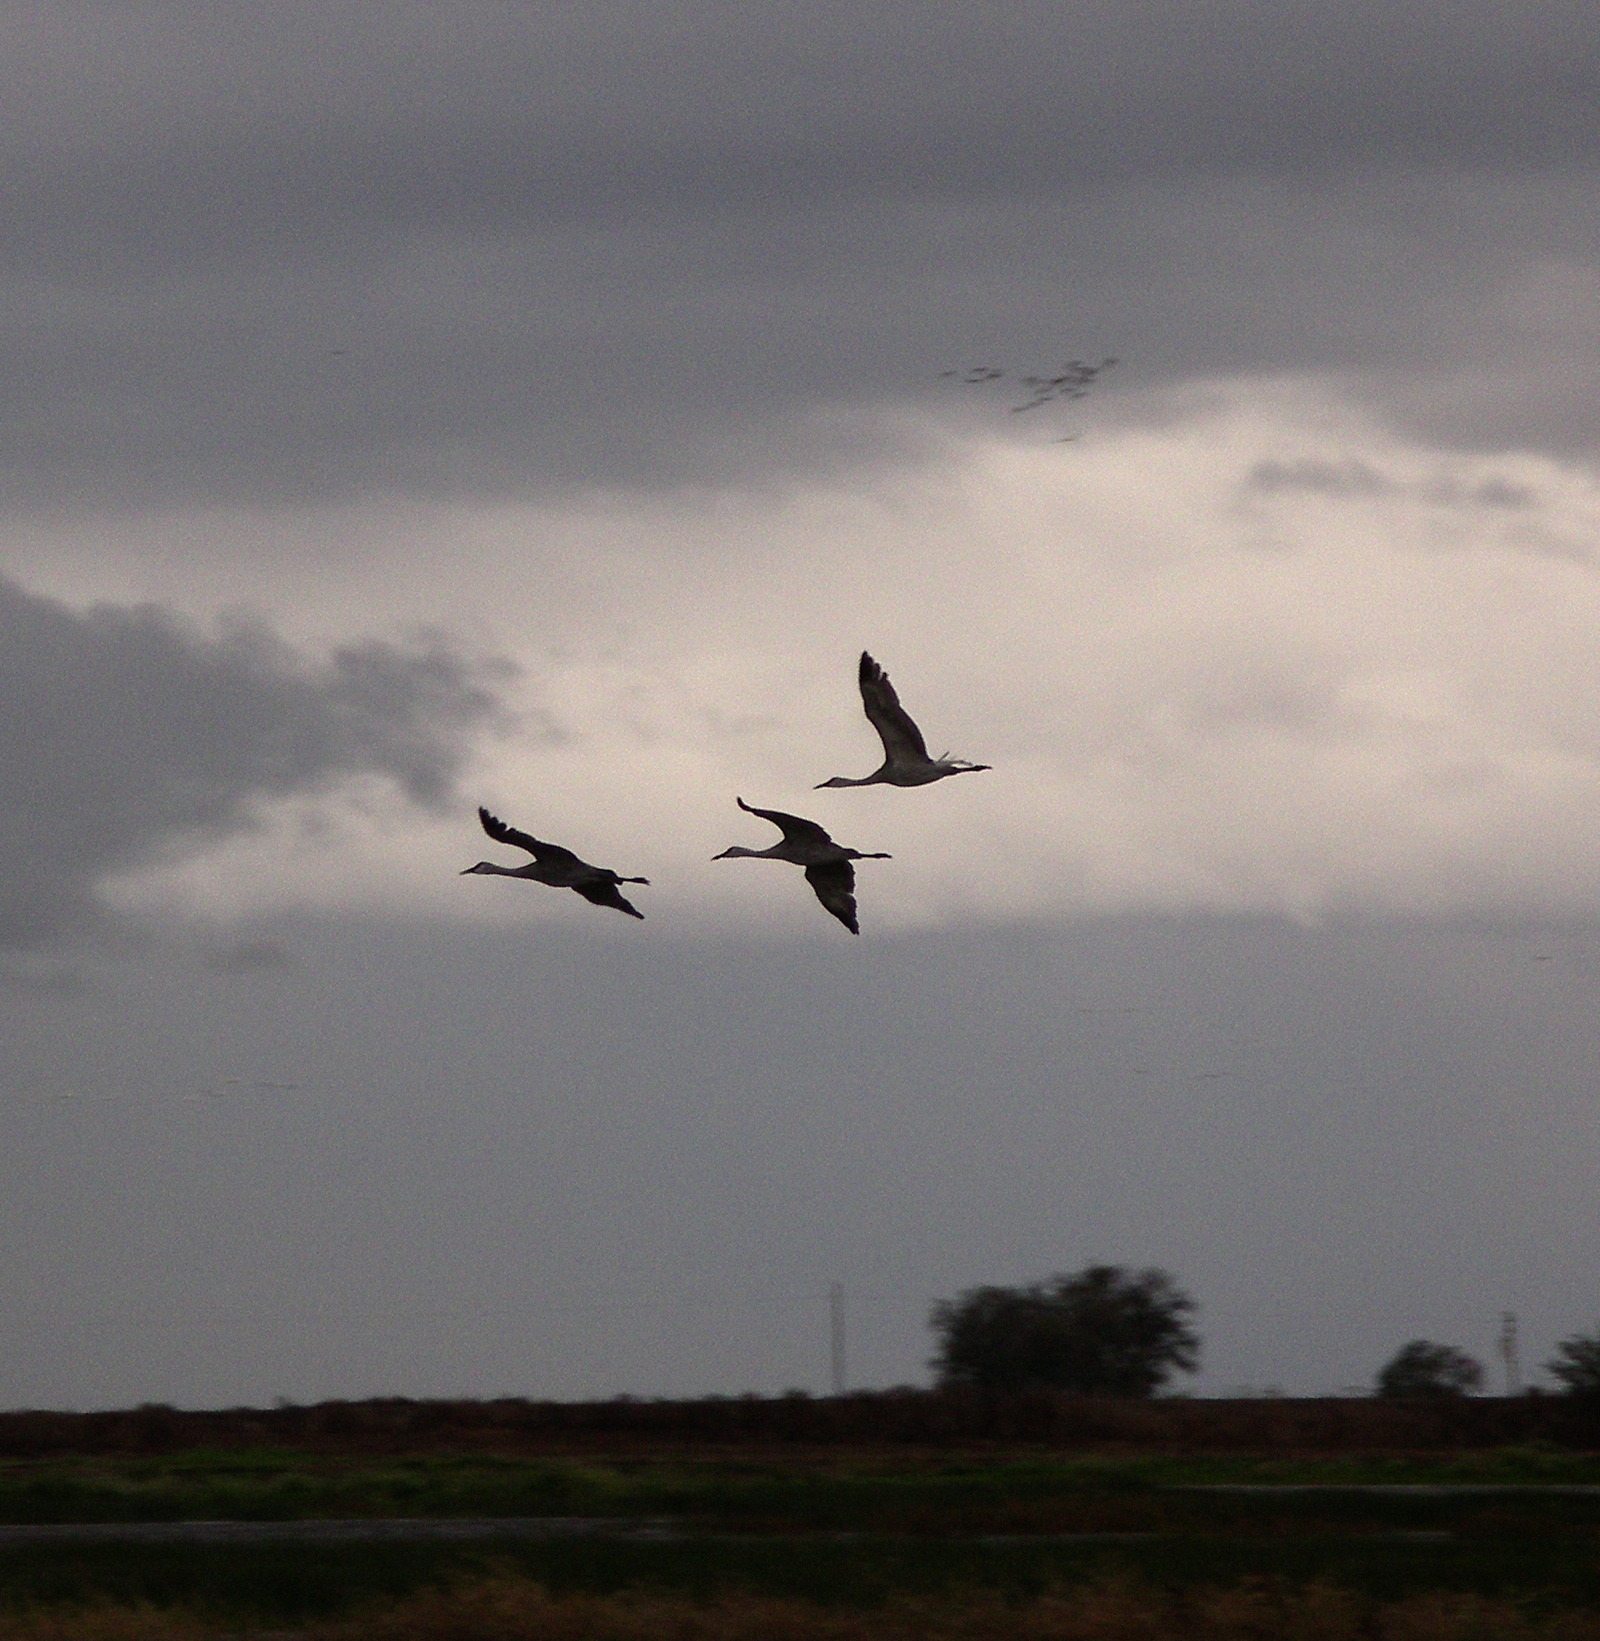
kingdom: Animalia
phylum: Chordata
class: Aves
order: Gruiformes
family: Gruidae
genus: Grus
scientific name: Grus canadensis
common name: Sandhill crane
